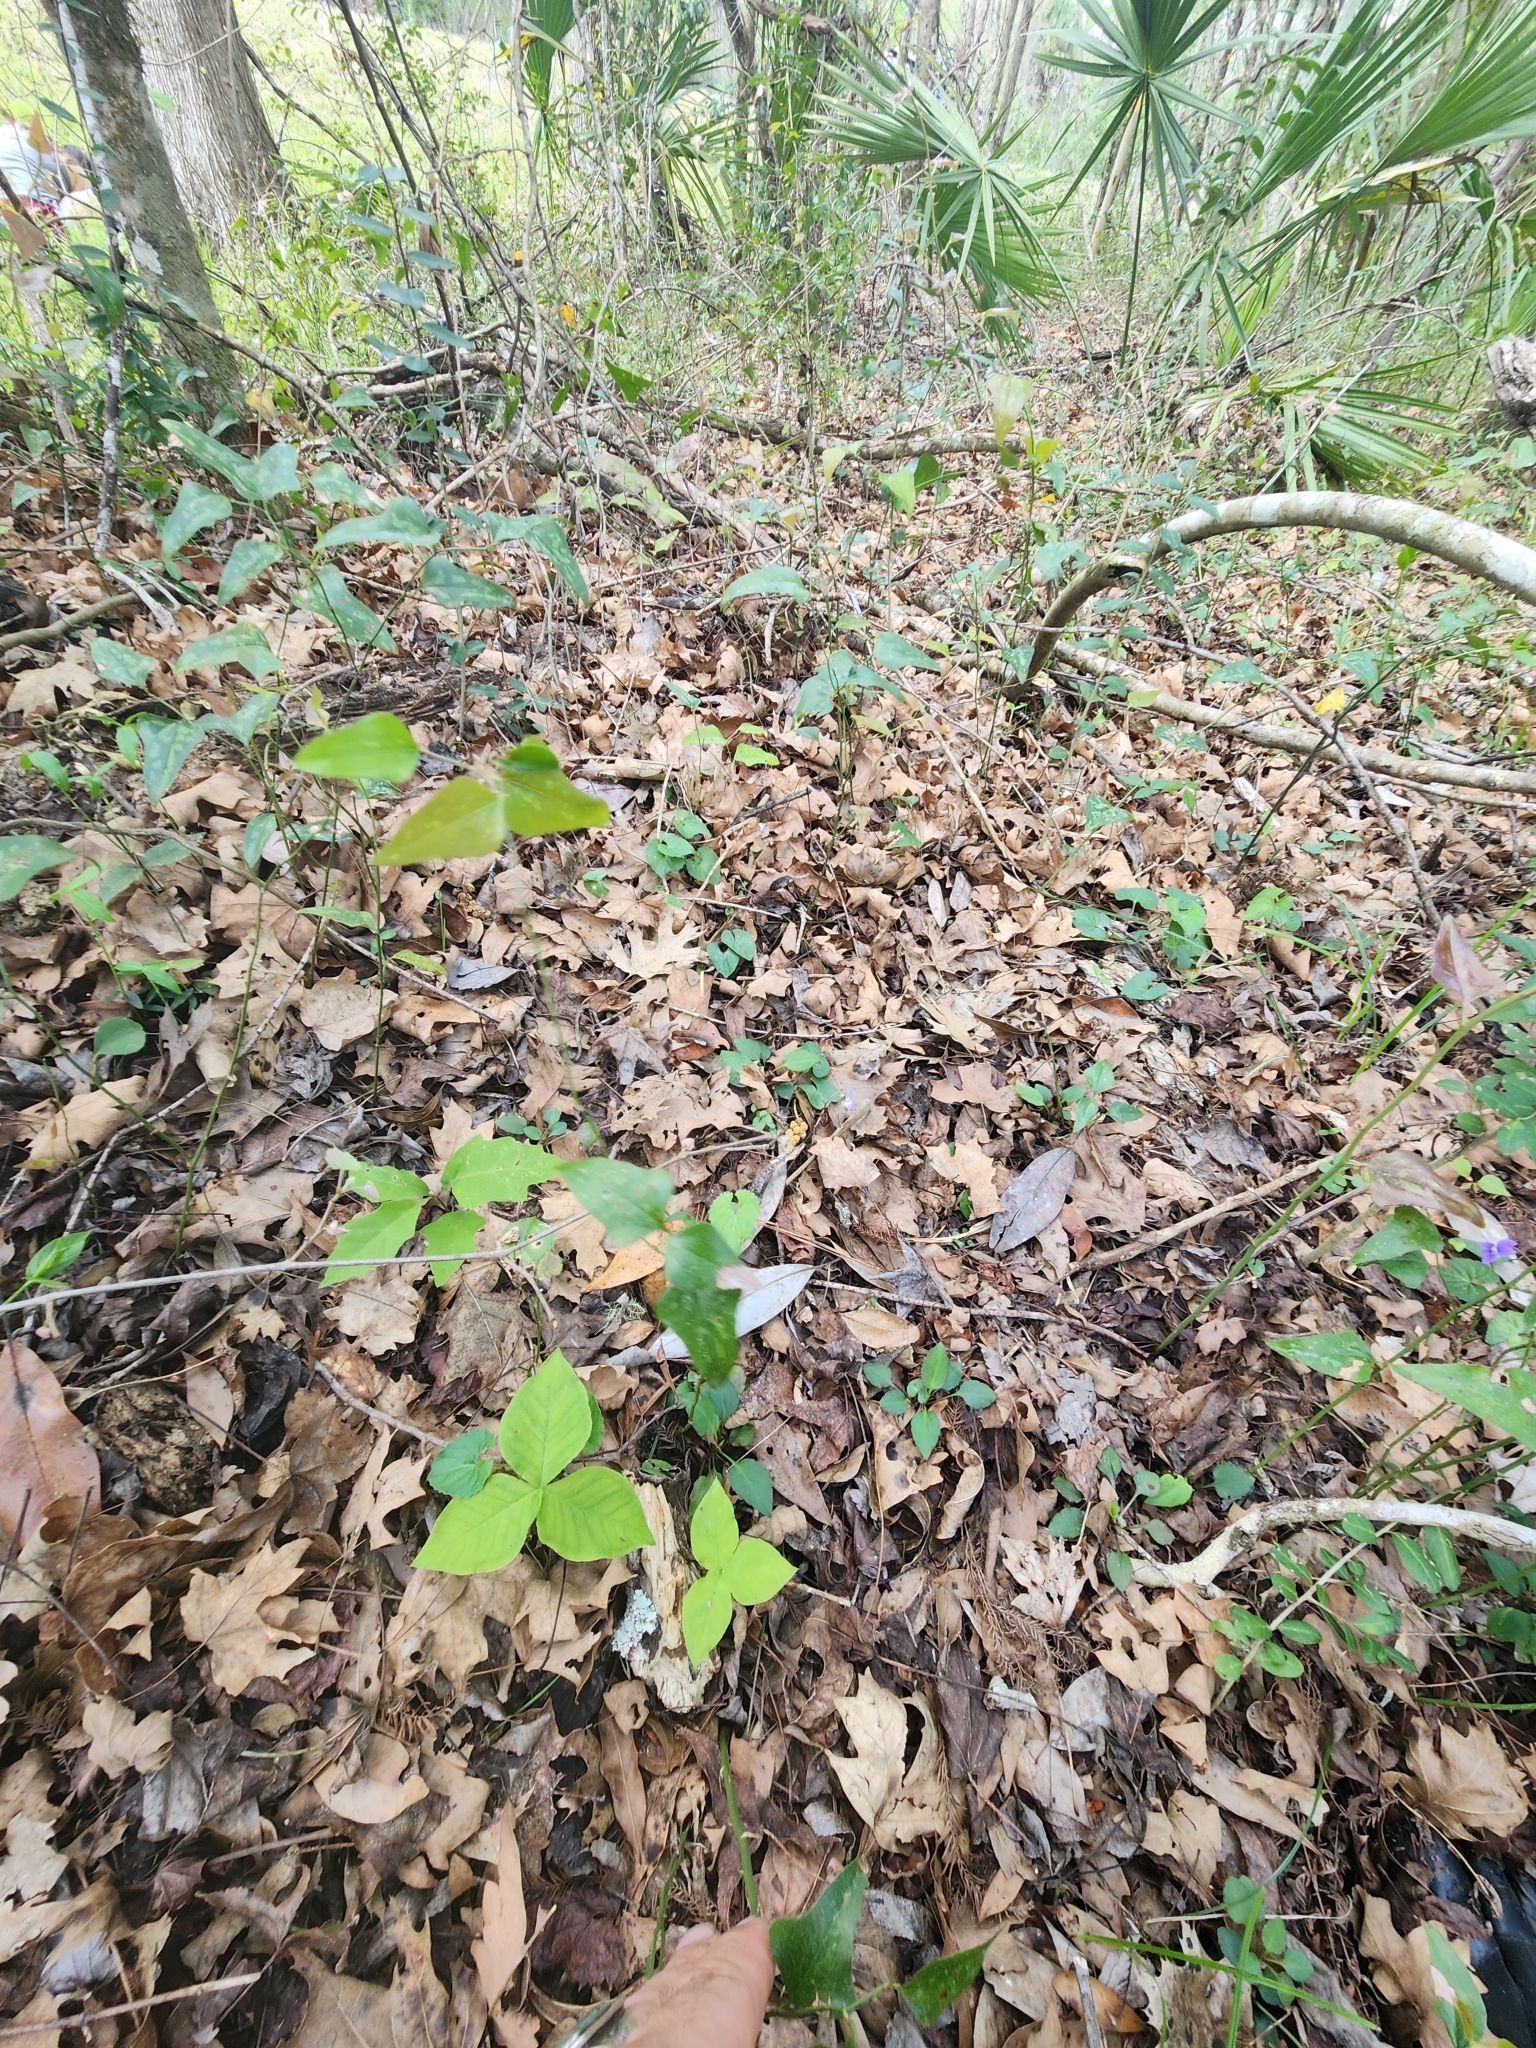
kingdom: Plantae
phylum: Tracheophyta
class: Liliopsida
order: Alismatales
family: Araceae
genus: Arisaema
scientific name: Arisaema acuminatum
